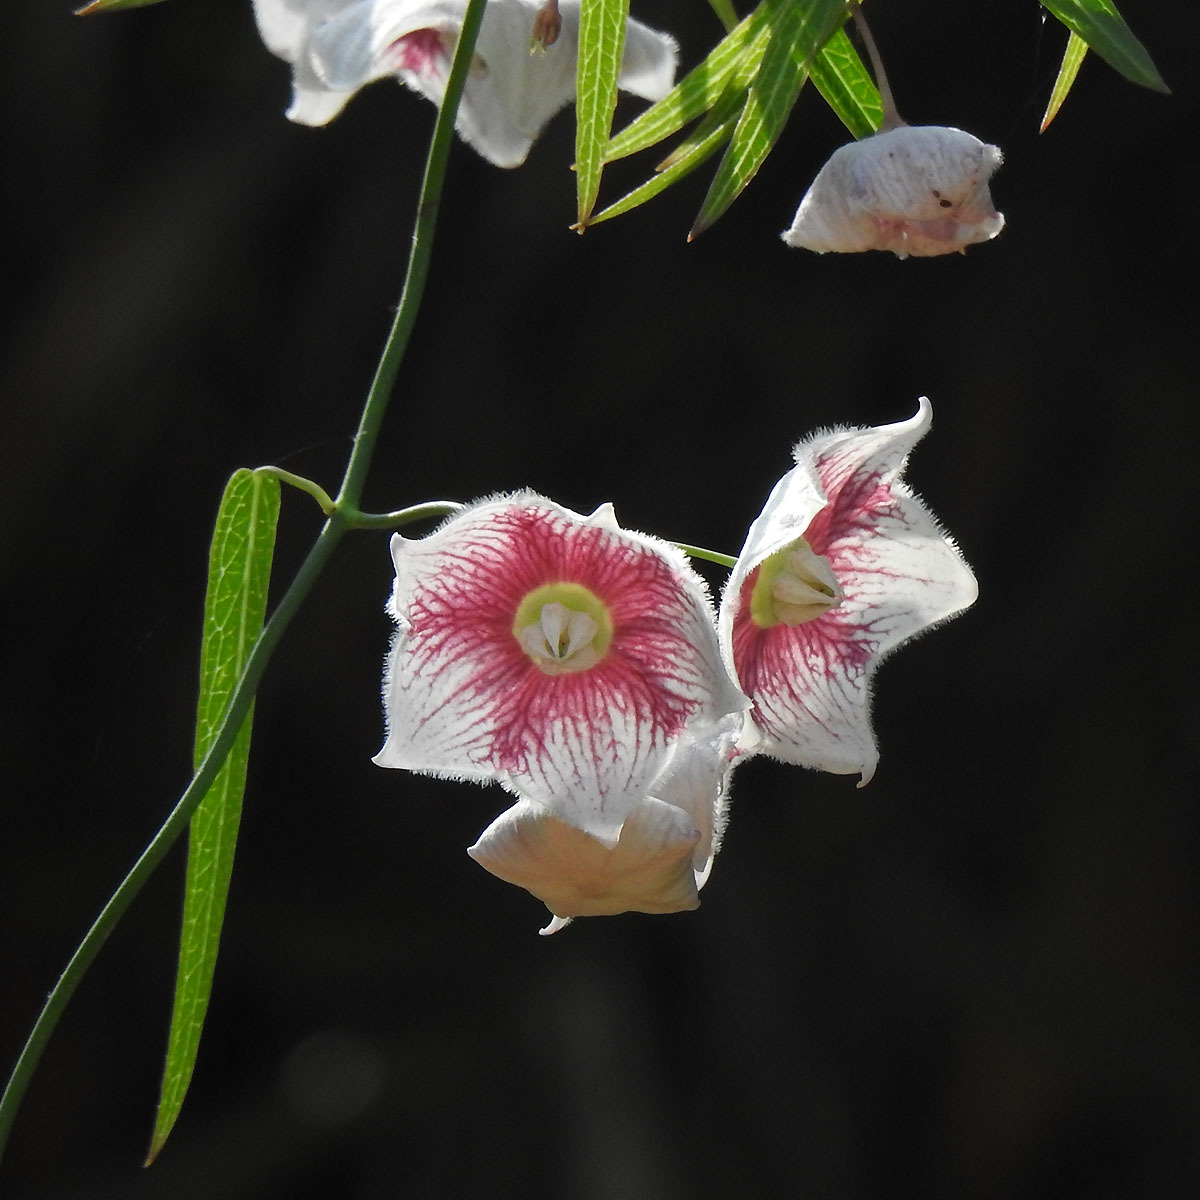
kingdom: Plantae
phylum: Tracheophyta
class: Magnoliopsida
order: Gentianales
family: Apocynaceae
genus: Oxystelma
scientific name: Oxystelma wallichii
